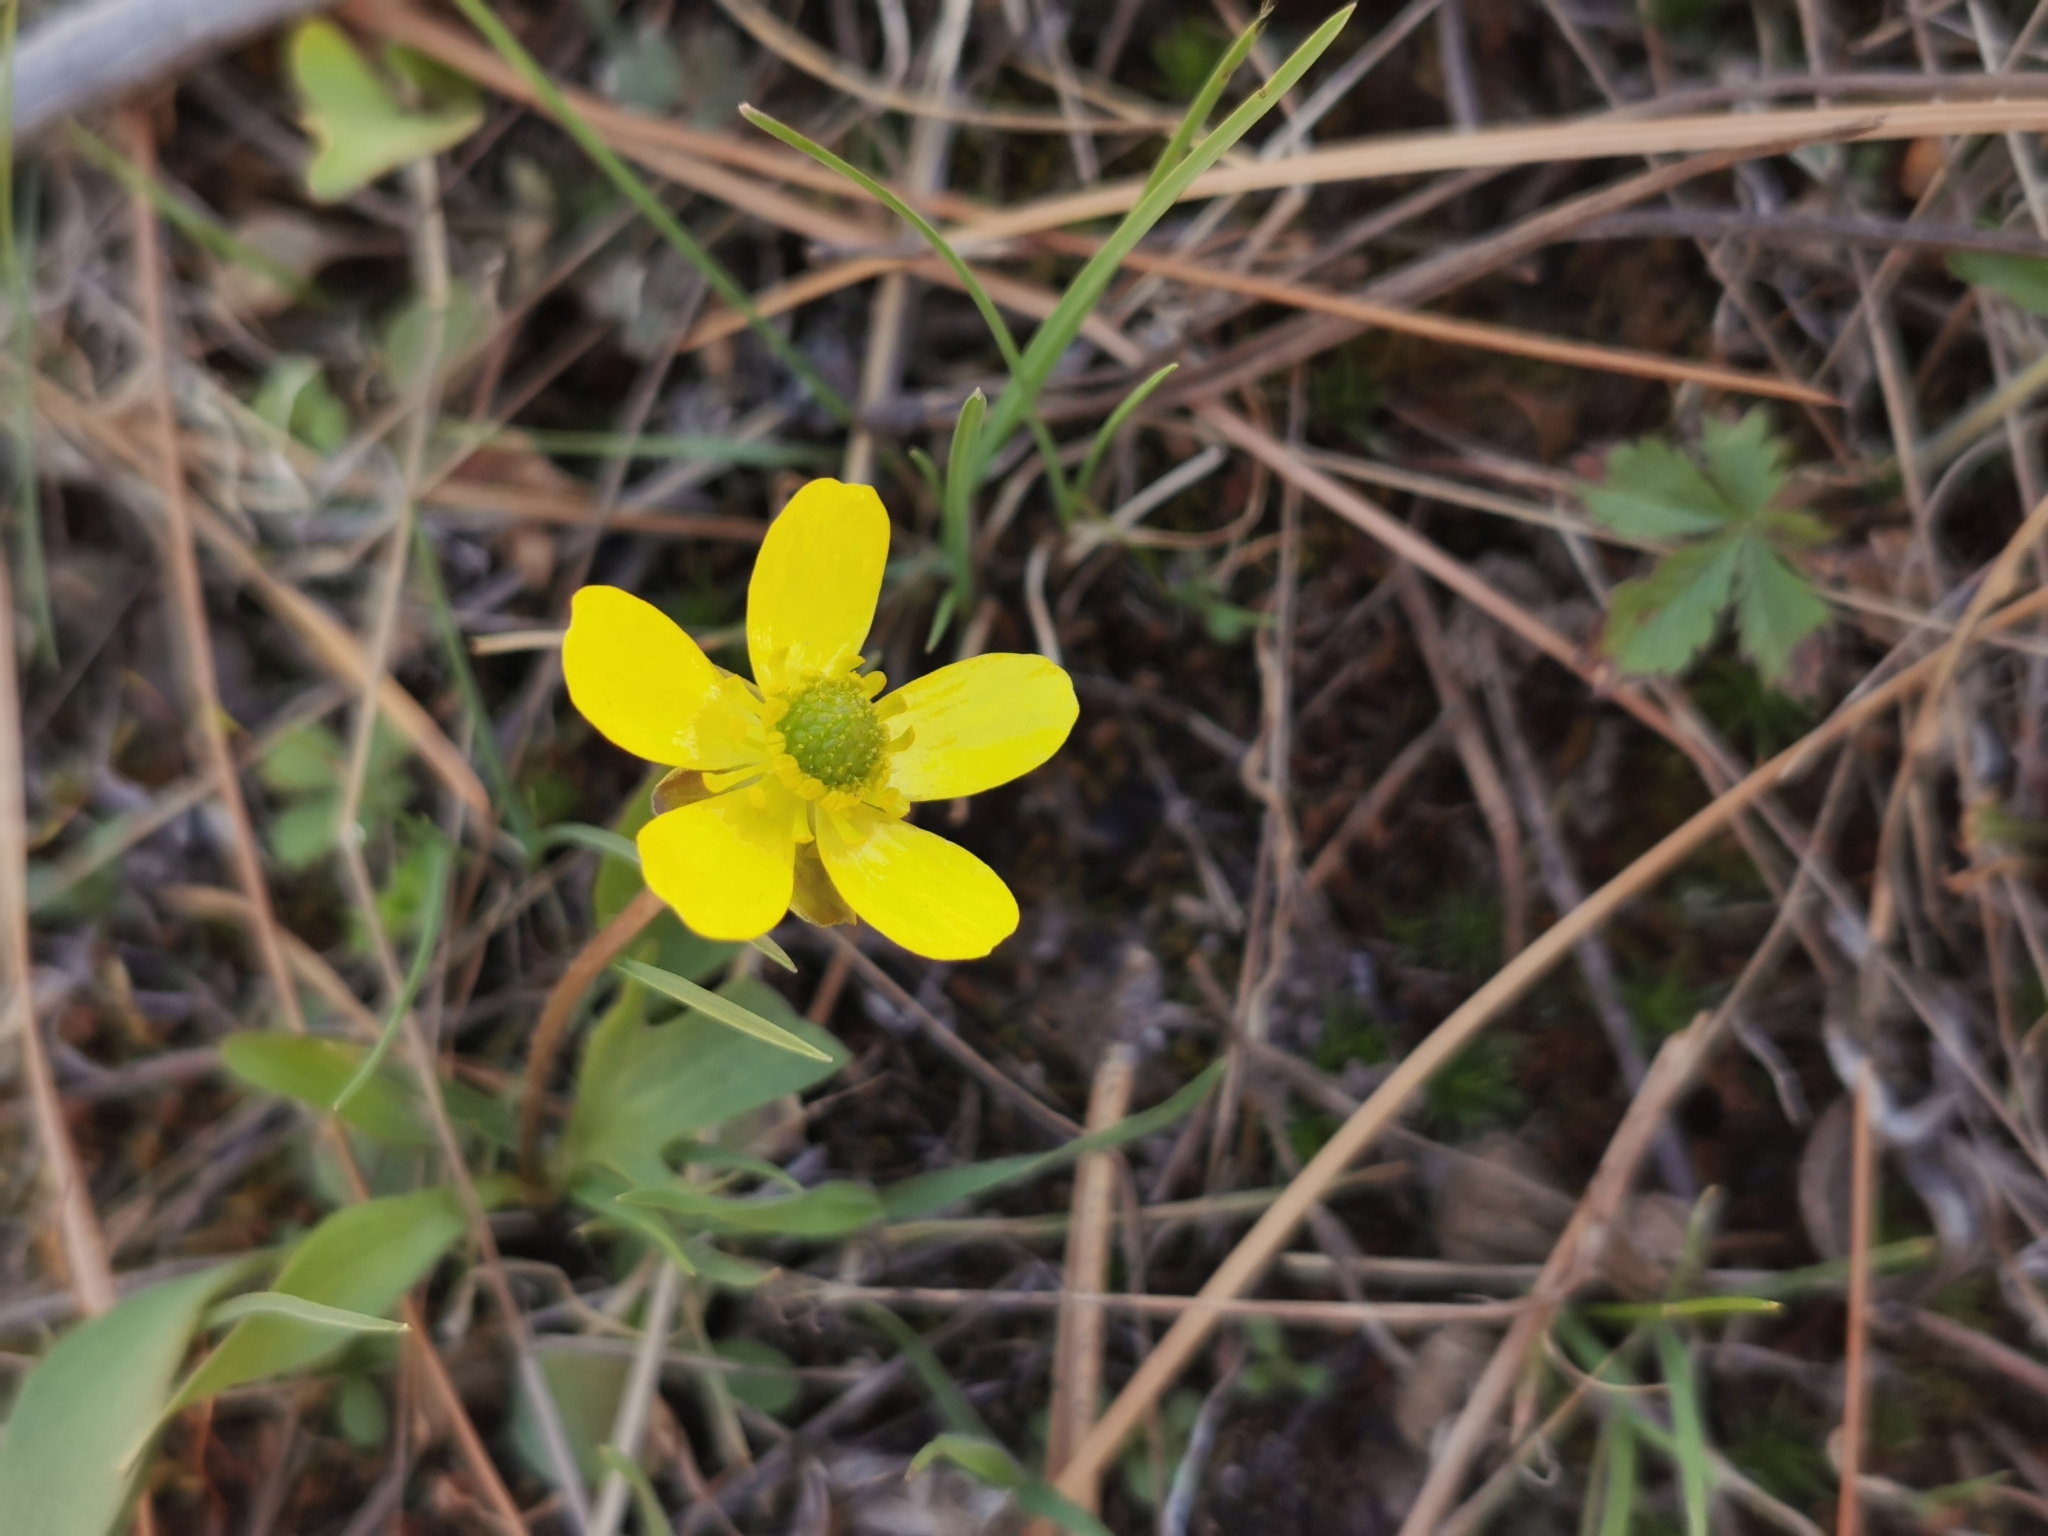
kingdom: Plantae
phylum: Tracheophyta
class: Magnoliopsida
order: Ranunculales
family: Ranunculaceae
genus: Ranunculus
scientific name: Ranunculus glaberrimus
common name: Sagebrush buttercup
